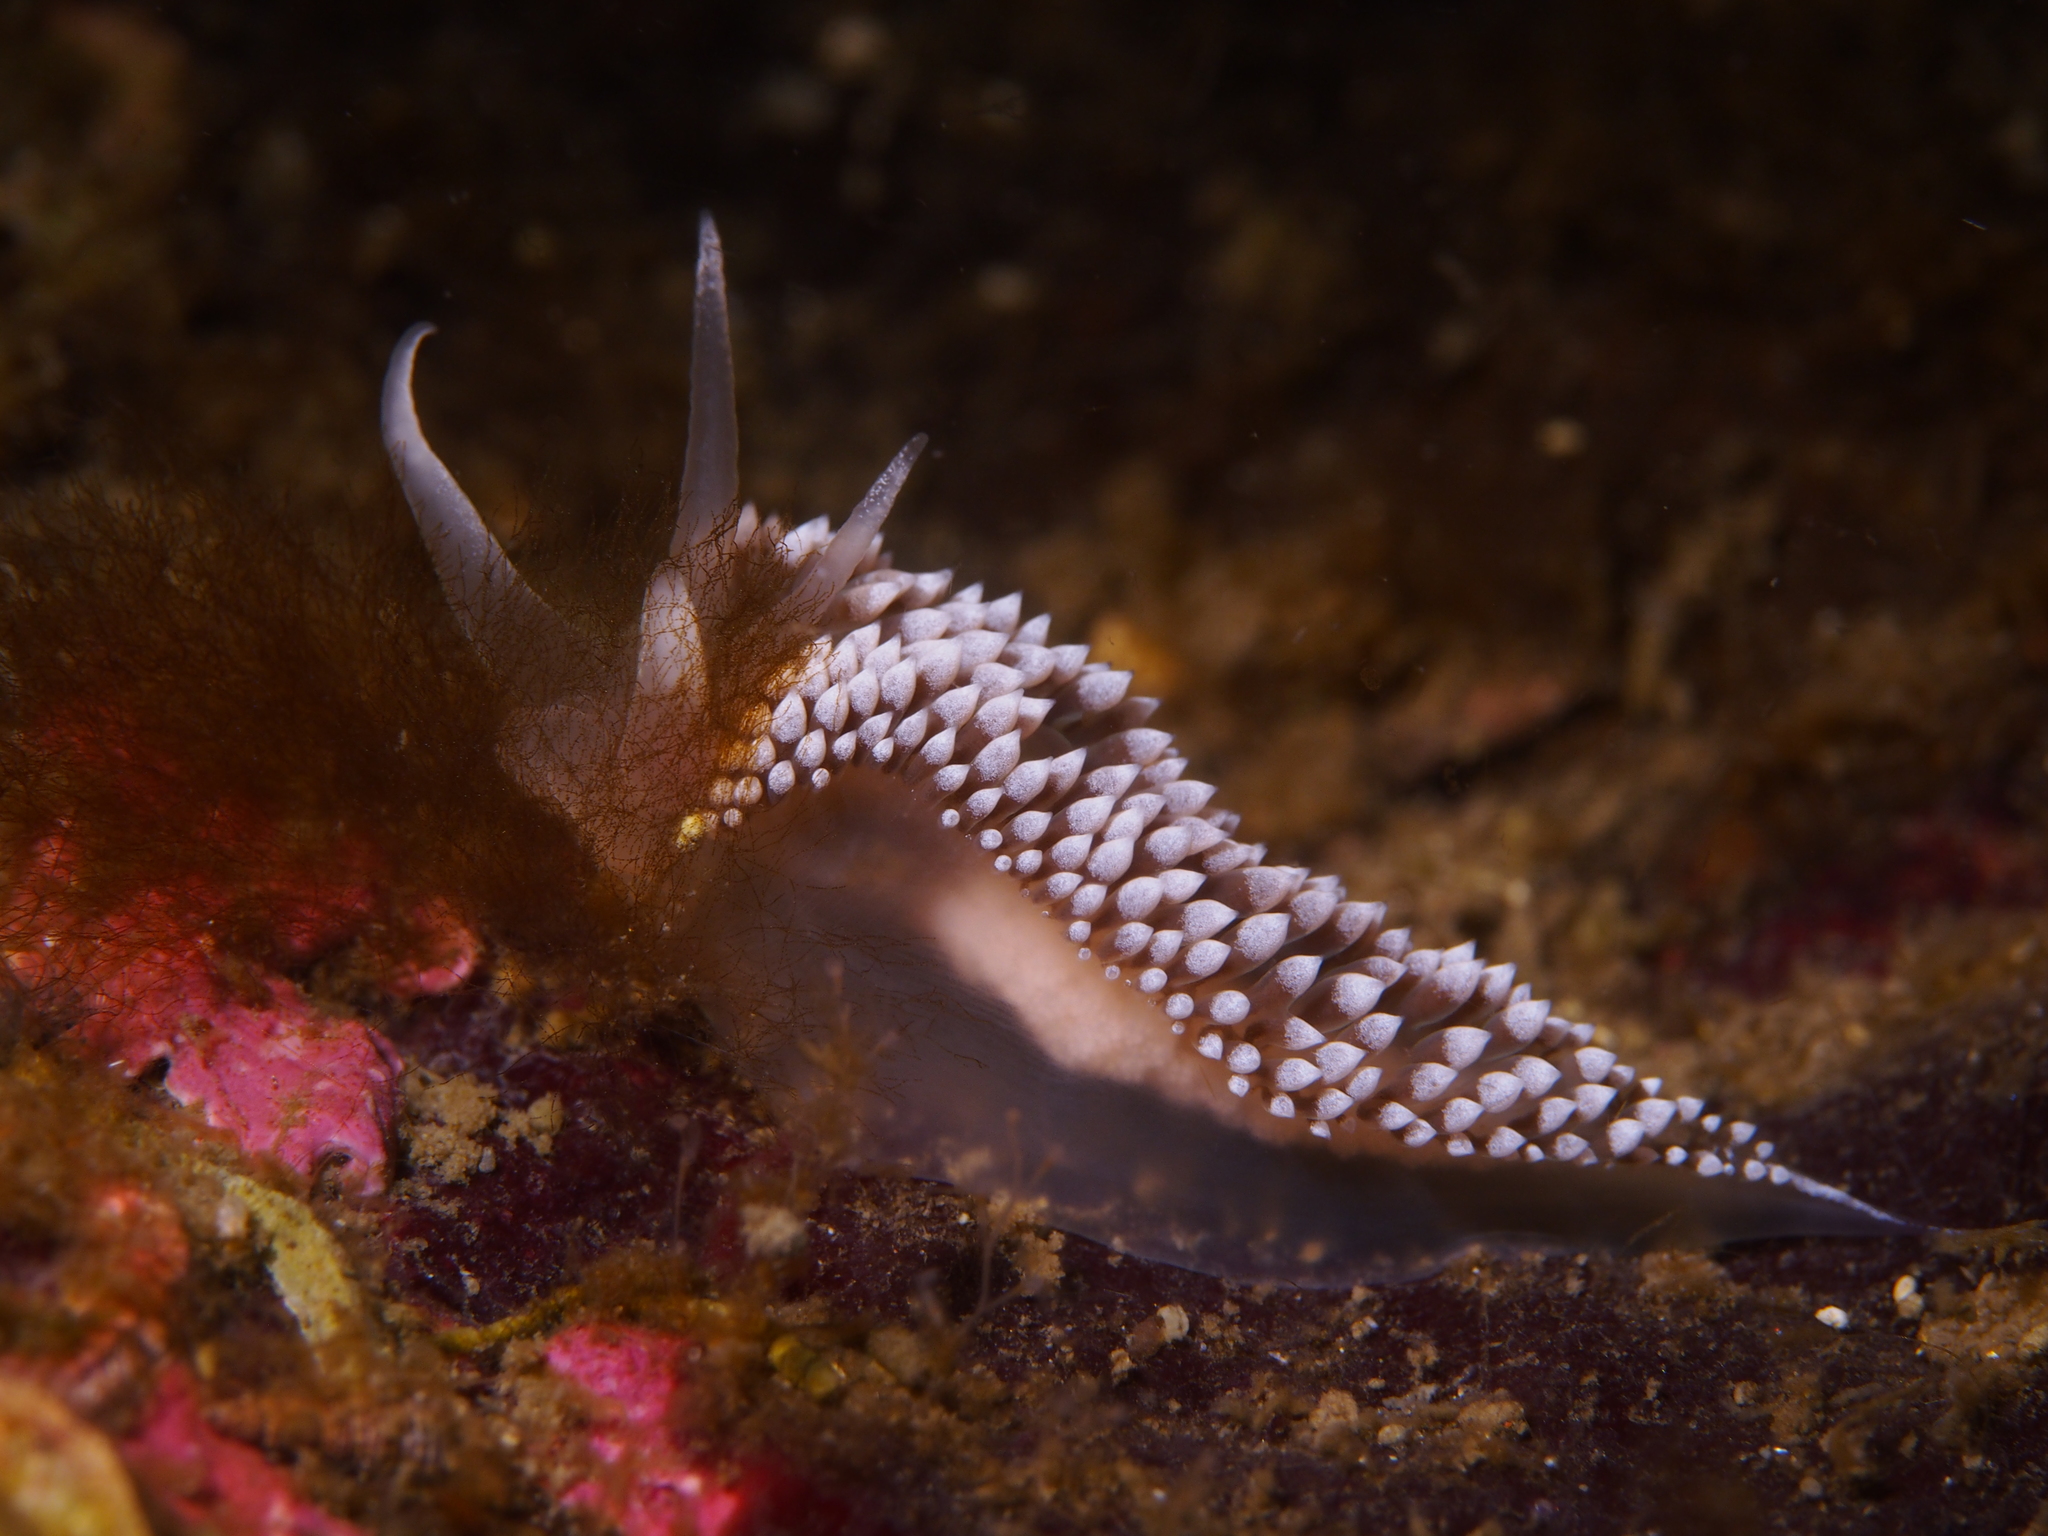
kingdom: Animalia
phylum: Mollusca
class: Gastropoda
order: Nudibranchia
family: Coryphellidae
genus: Coryphella
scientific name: Coryphella verrucosa
